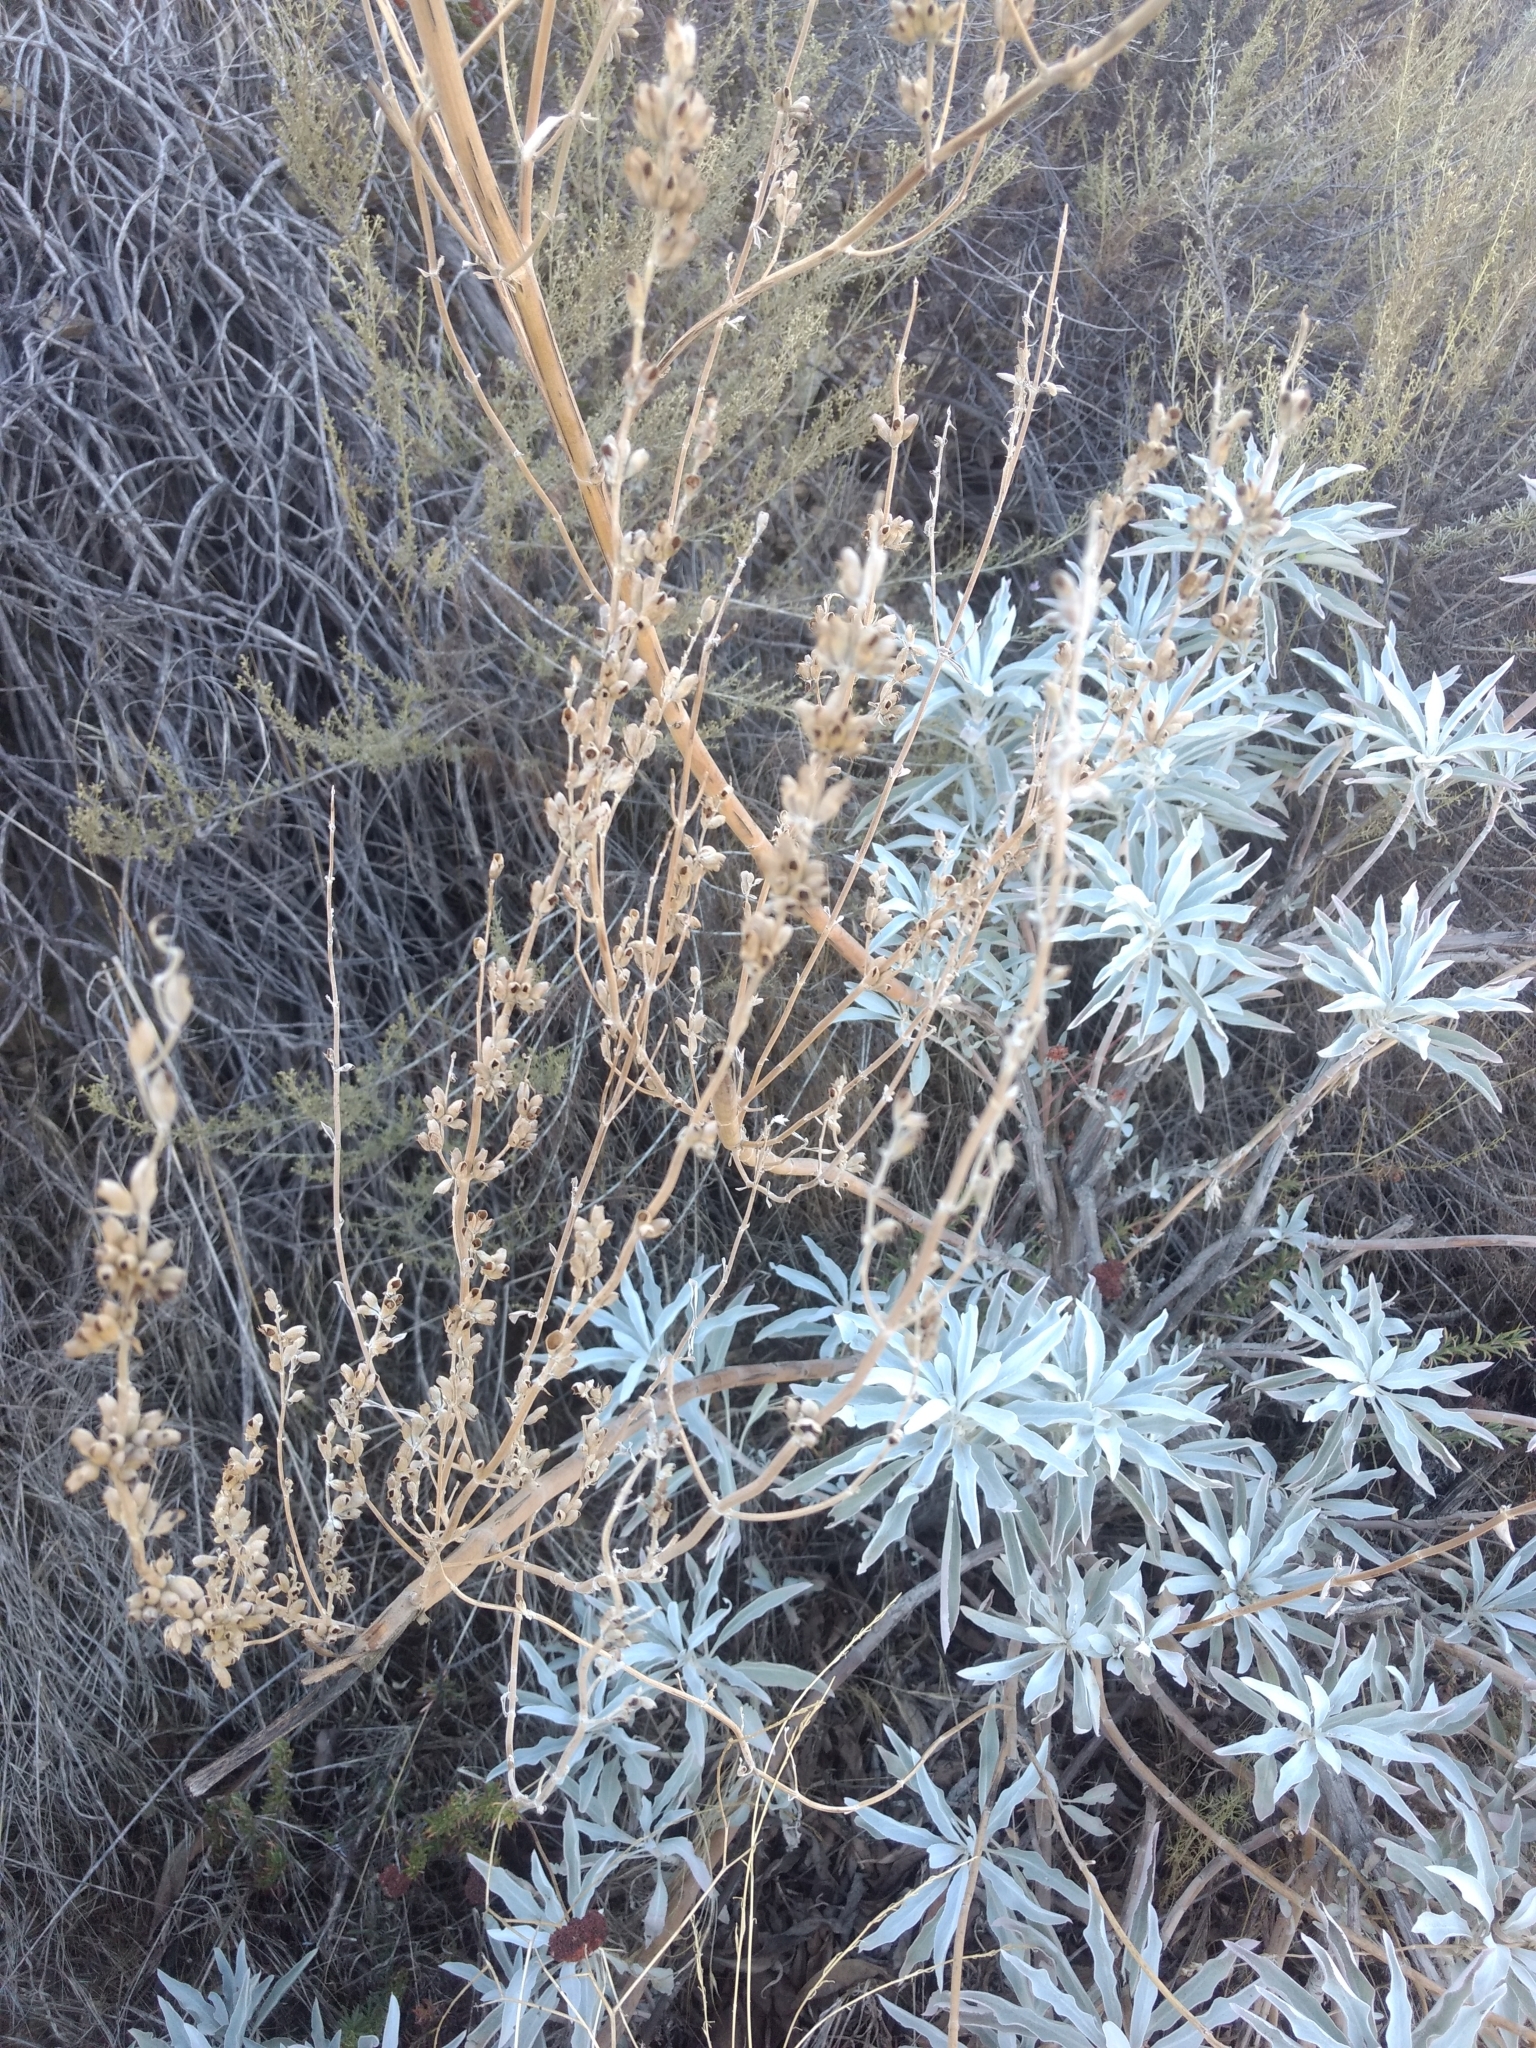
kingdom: Plantae
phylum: Tracheophyta
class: Magnoliopsida
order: Lamiales
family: Lamiaceae
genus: Salvia
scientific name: Salvia apiana
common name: White sage
